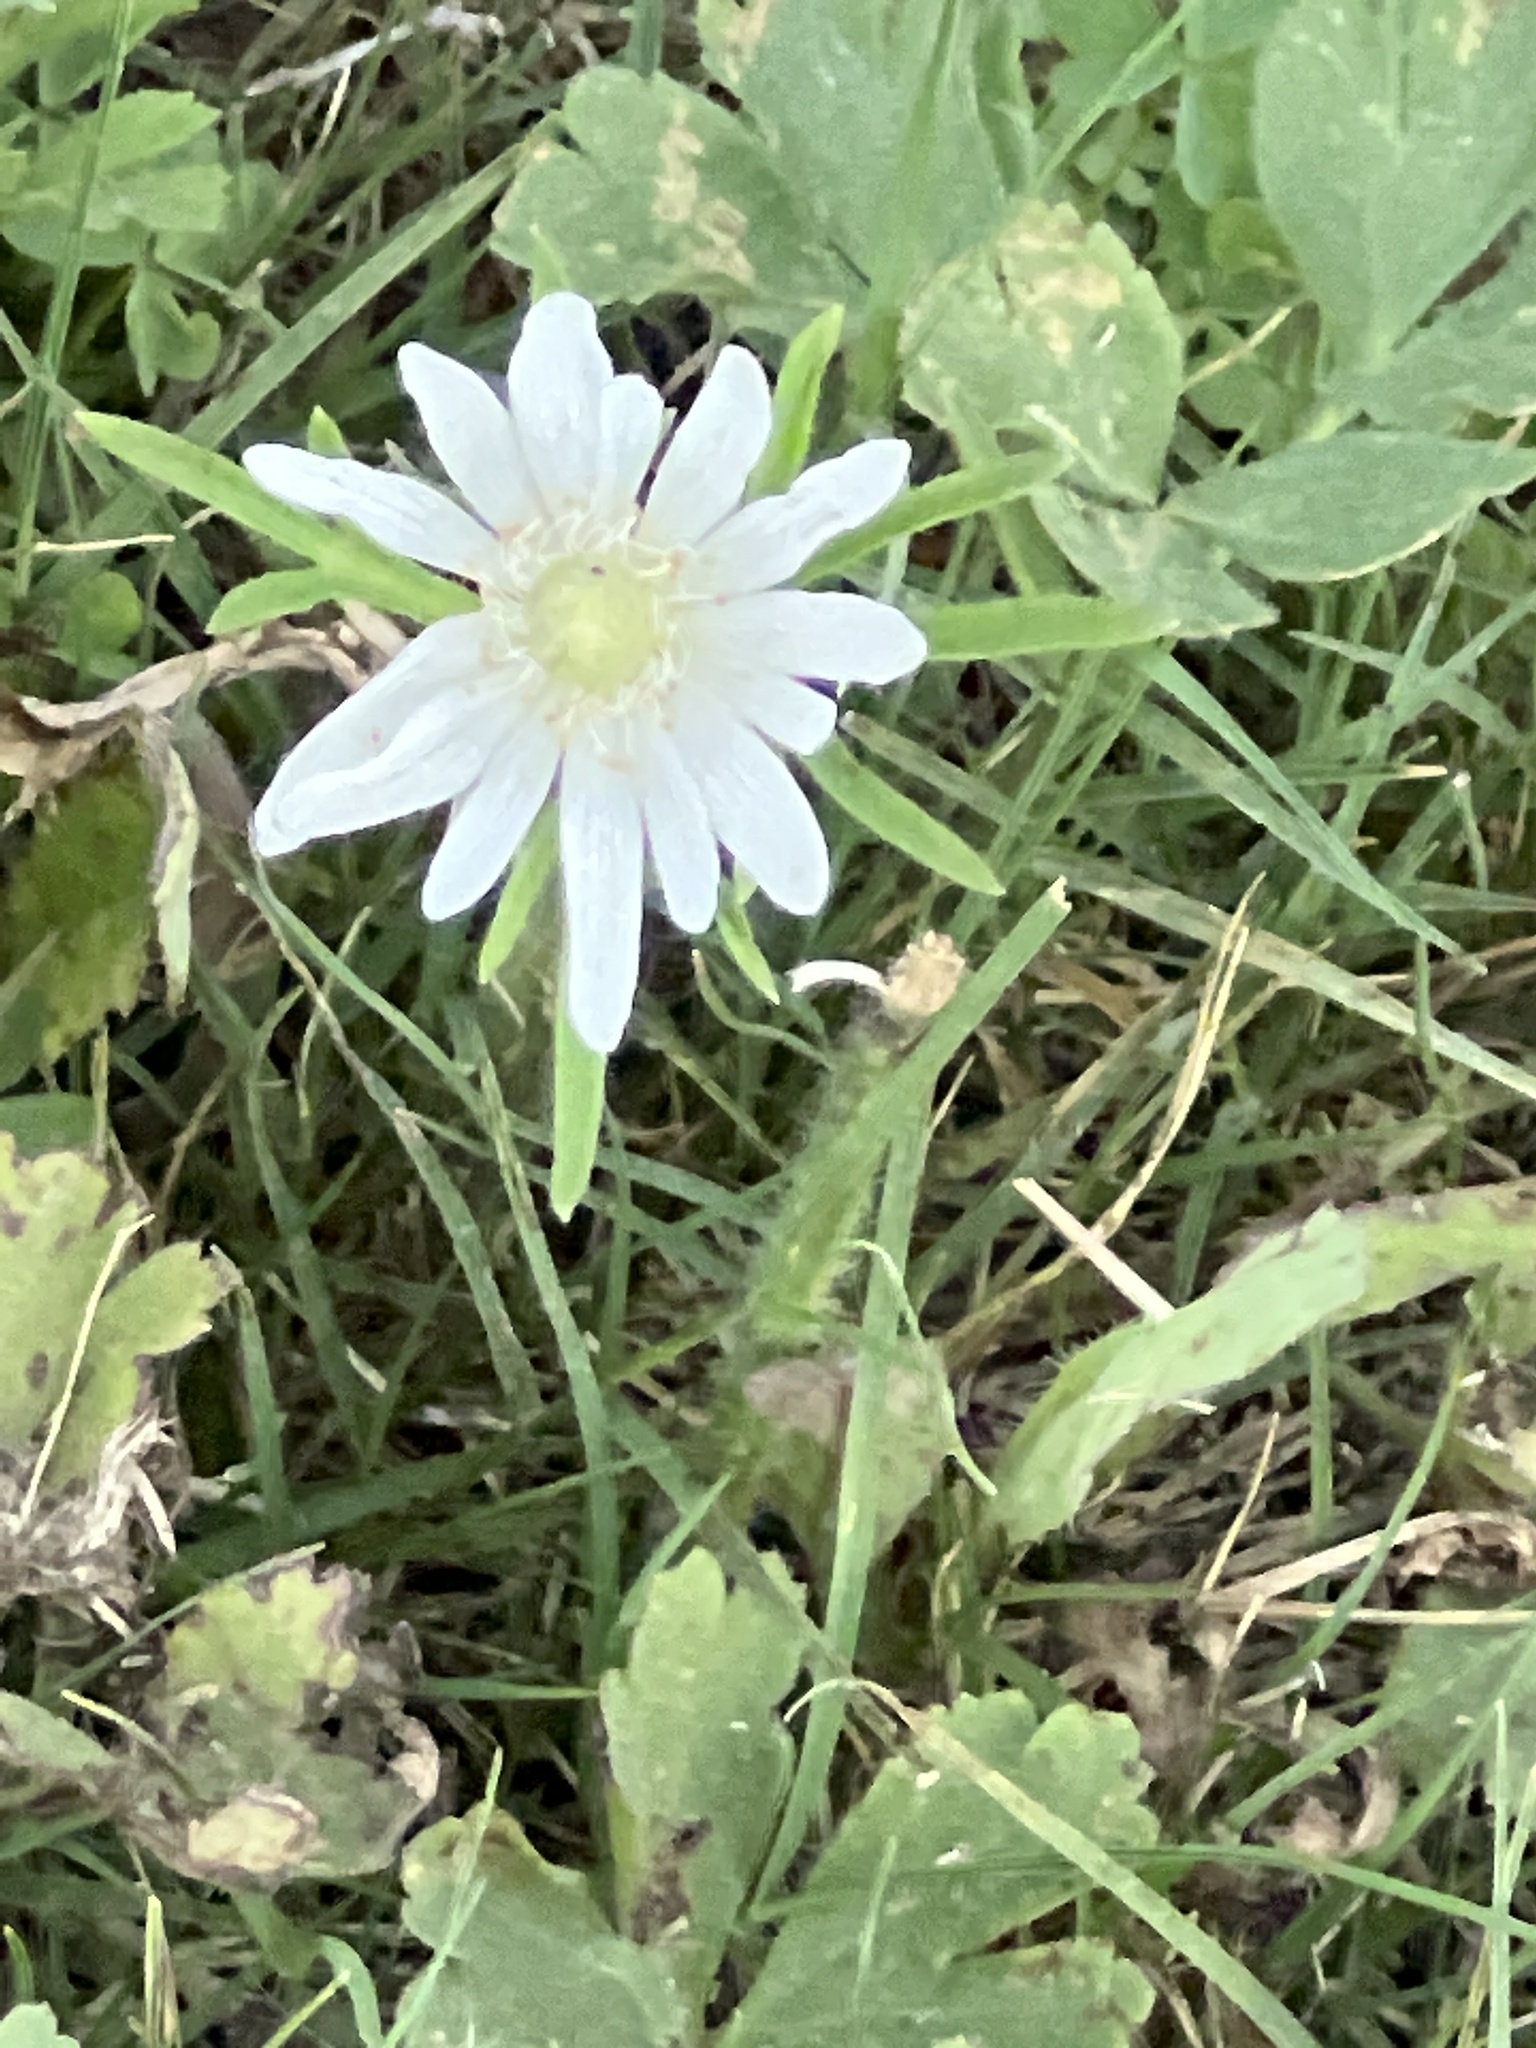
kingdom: Plantae
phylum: Tracheophyta
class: Magnoliopsida
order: Ranunculales
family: Ranunculaceae
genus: Anemone
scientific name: Anemone berlandieri
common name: Ten-petal anemone
